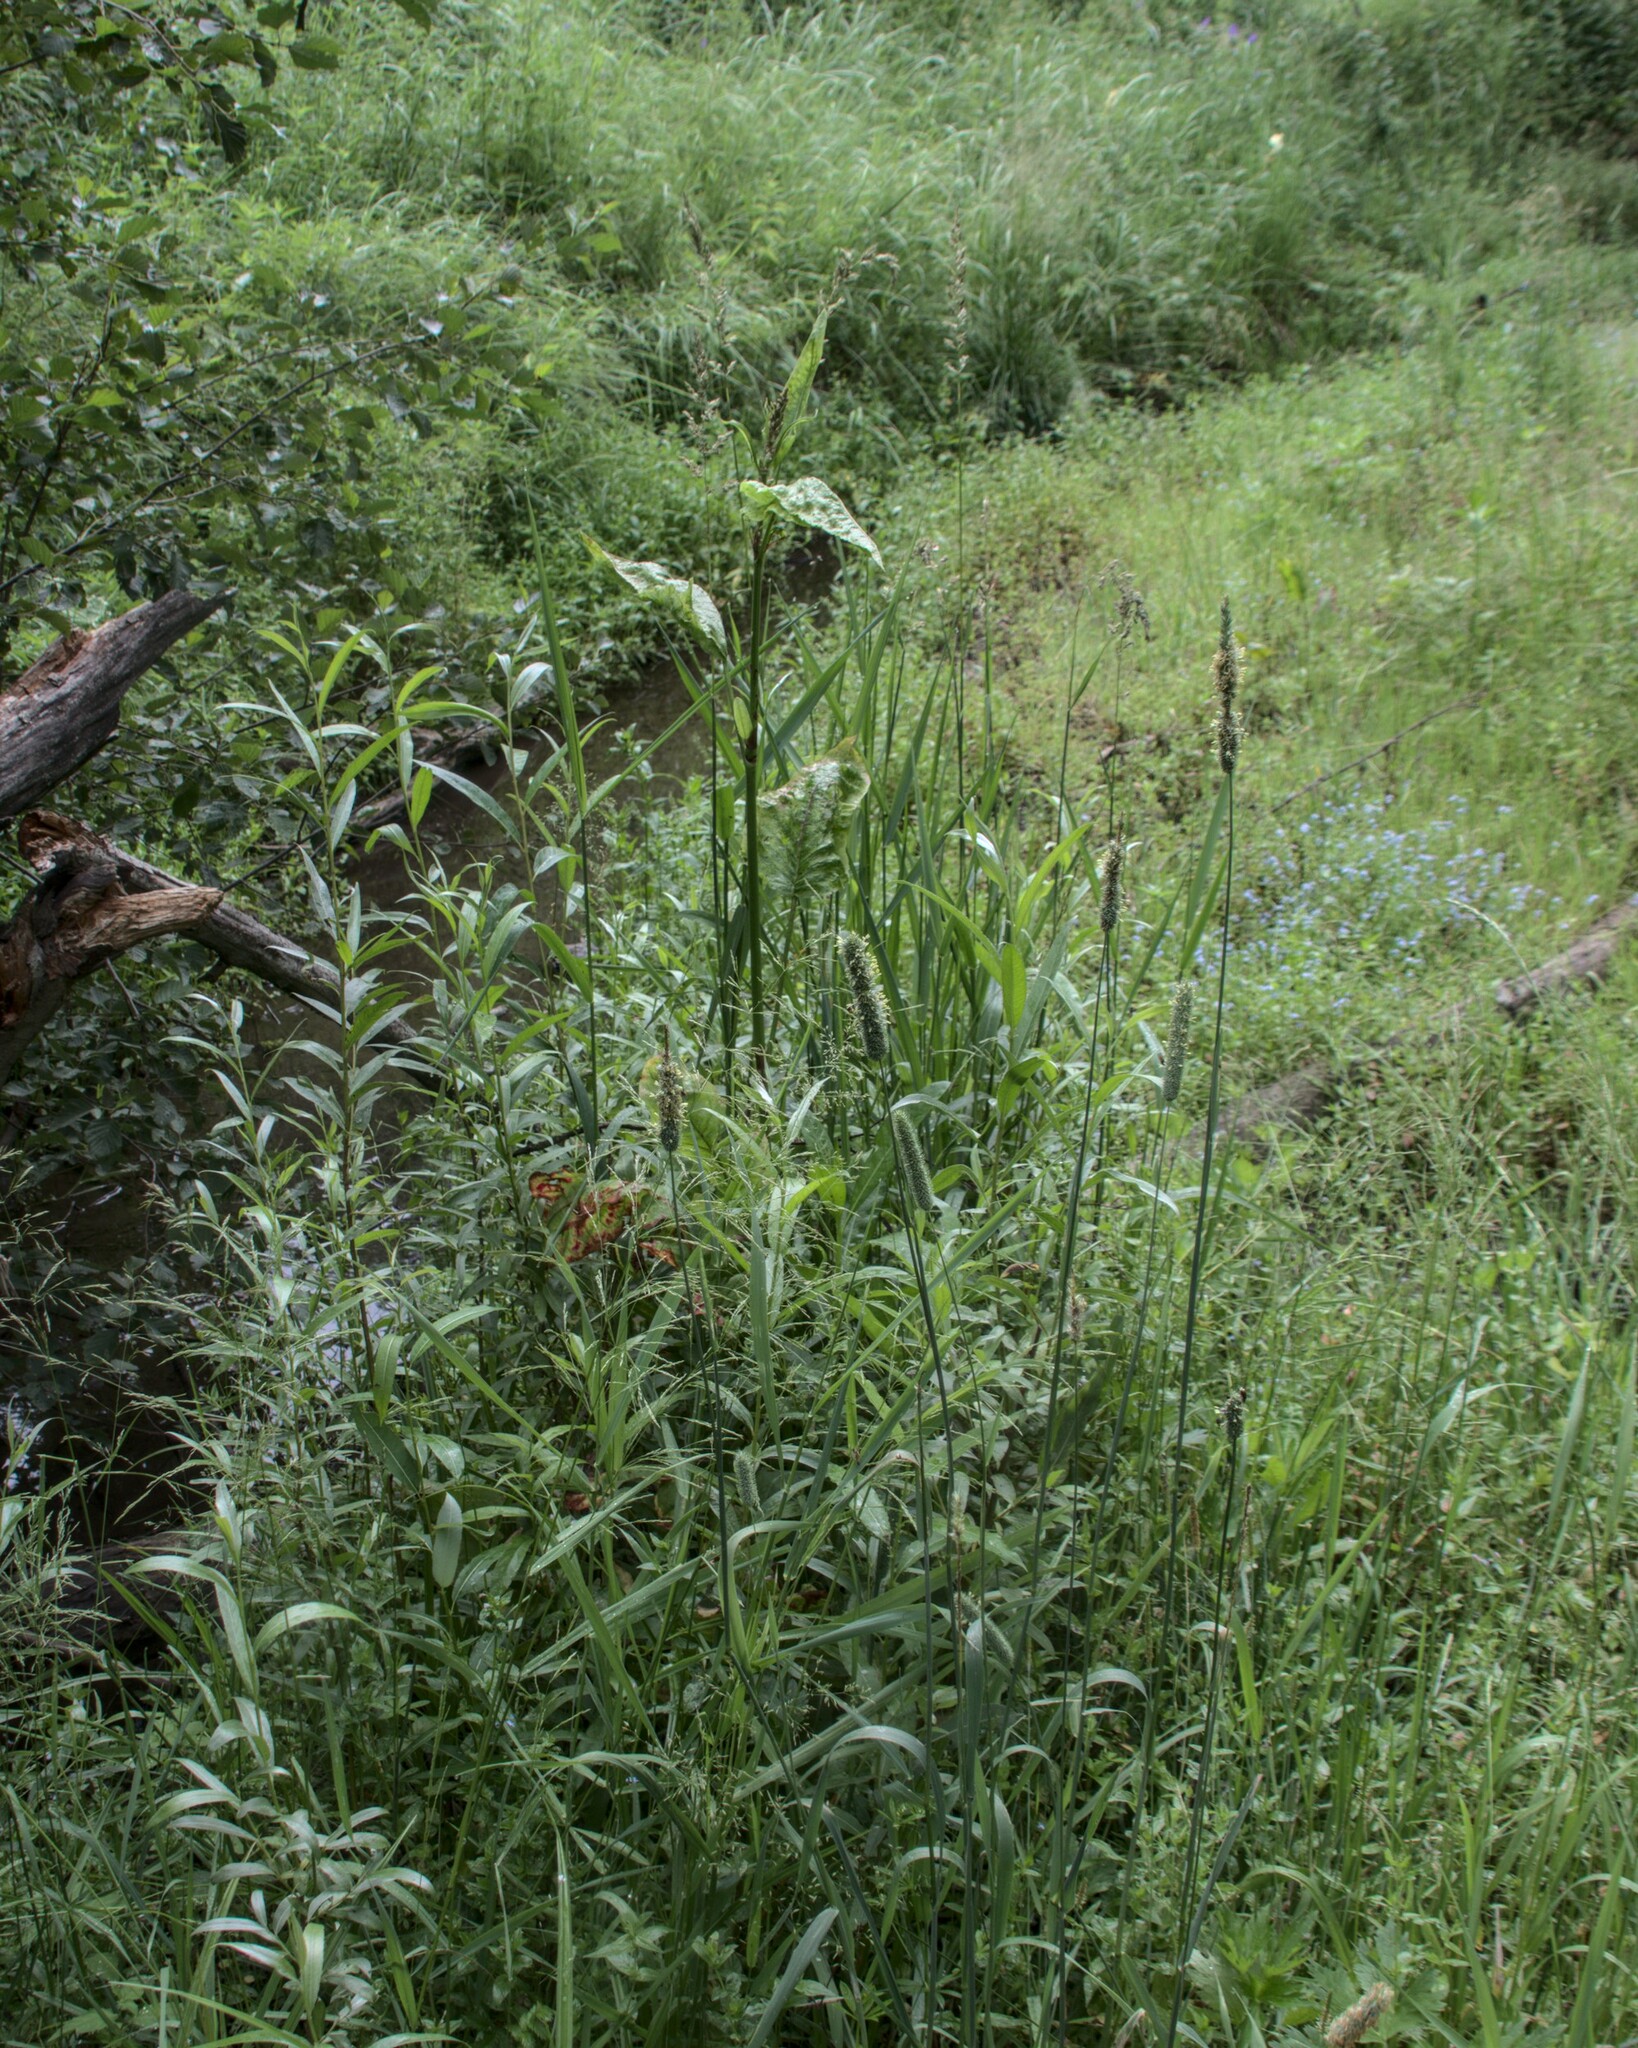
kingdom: Plantae
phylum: Tracheophyta
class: Magnoliopsida
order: Caryophyllales
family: Polygonaceae
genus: Rumex
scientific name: Rumex aquaticus
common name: Scottish dock
